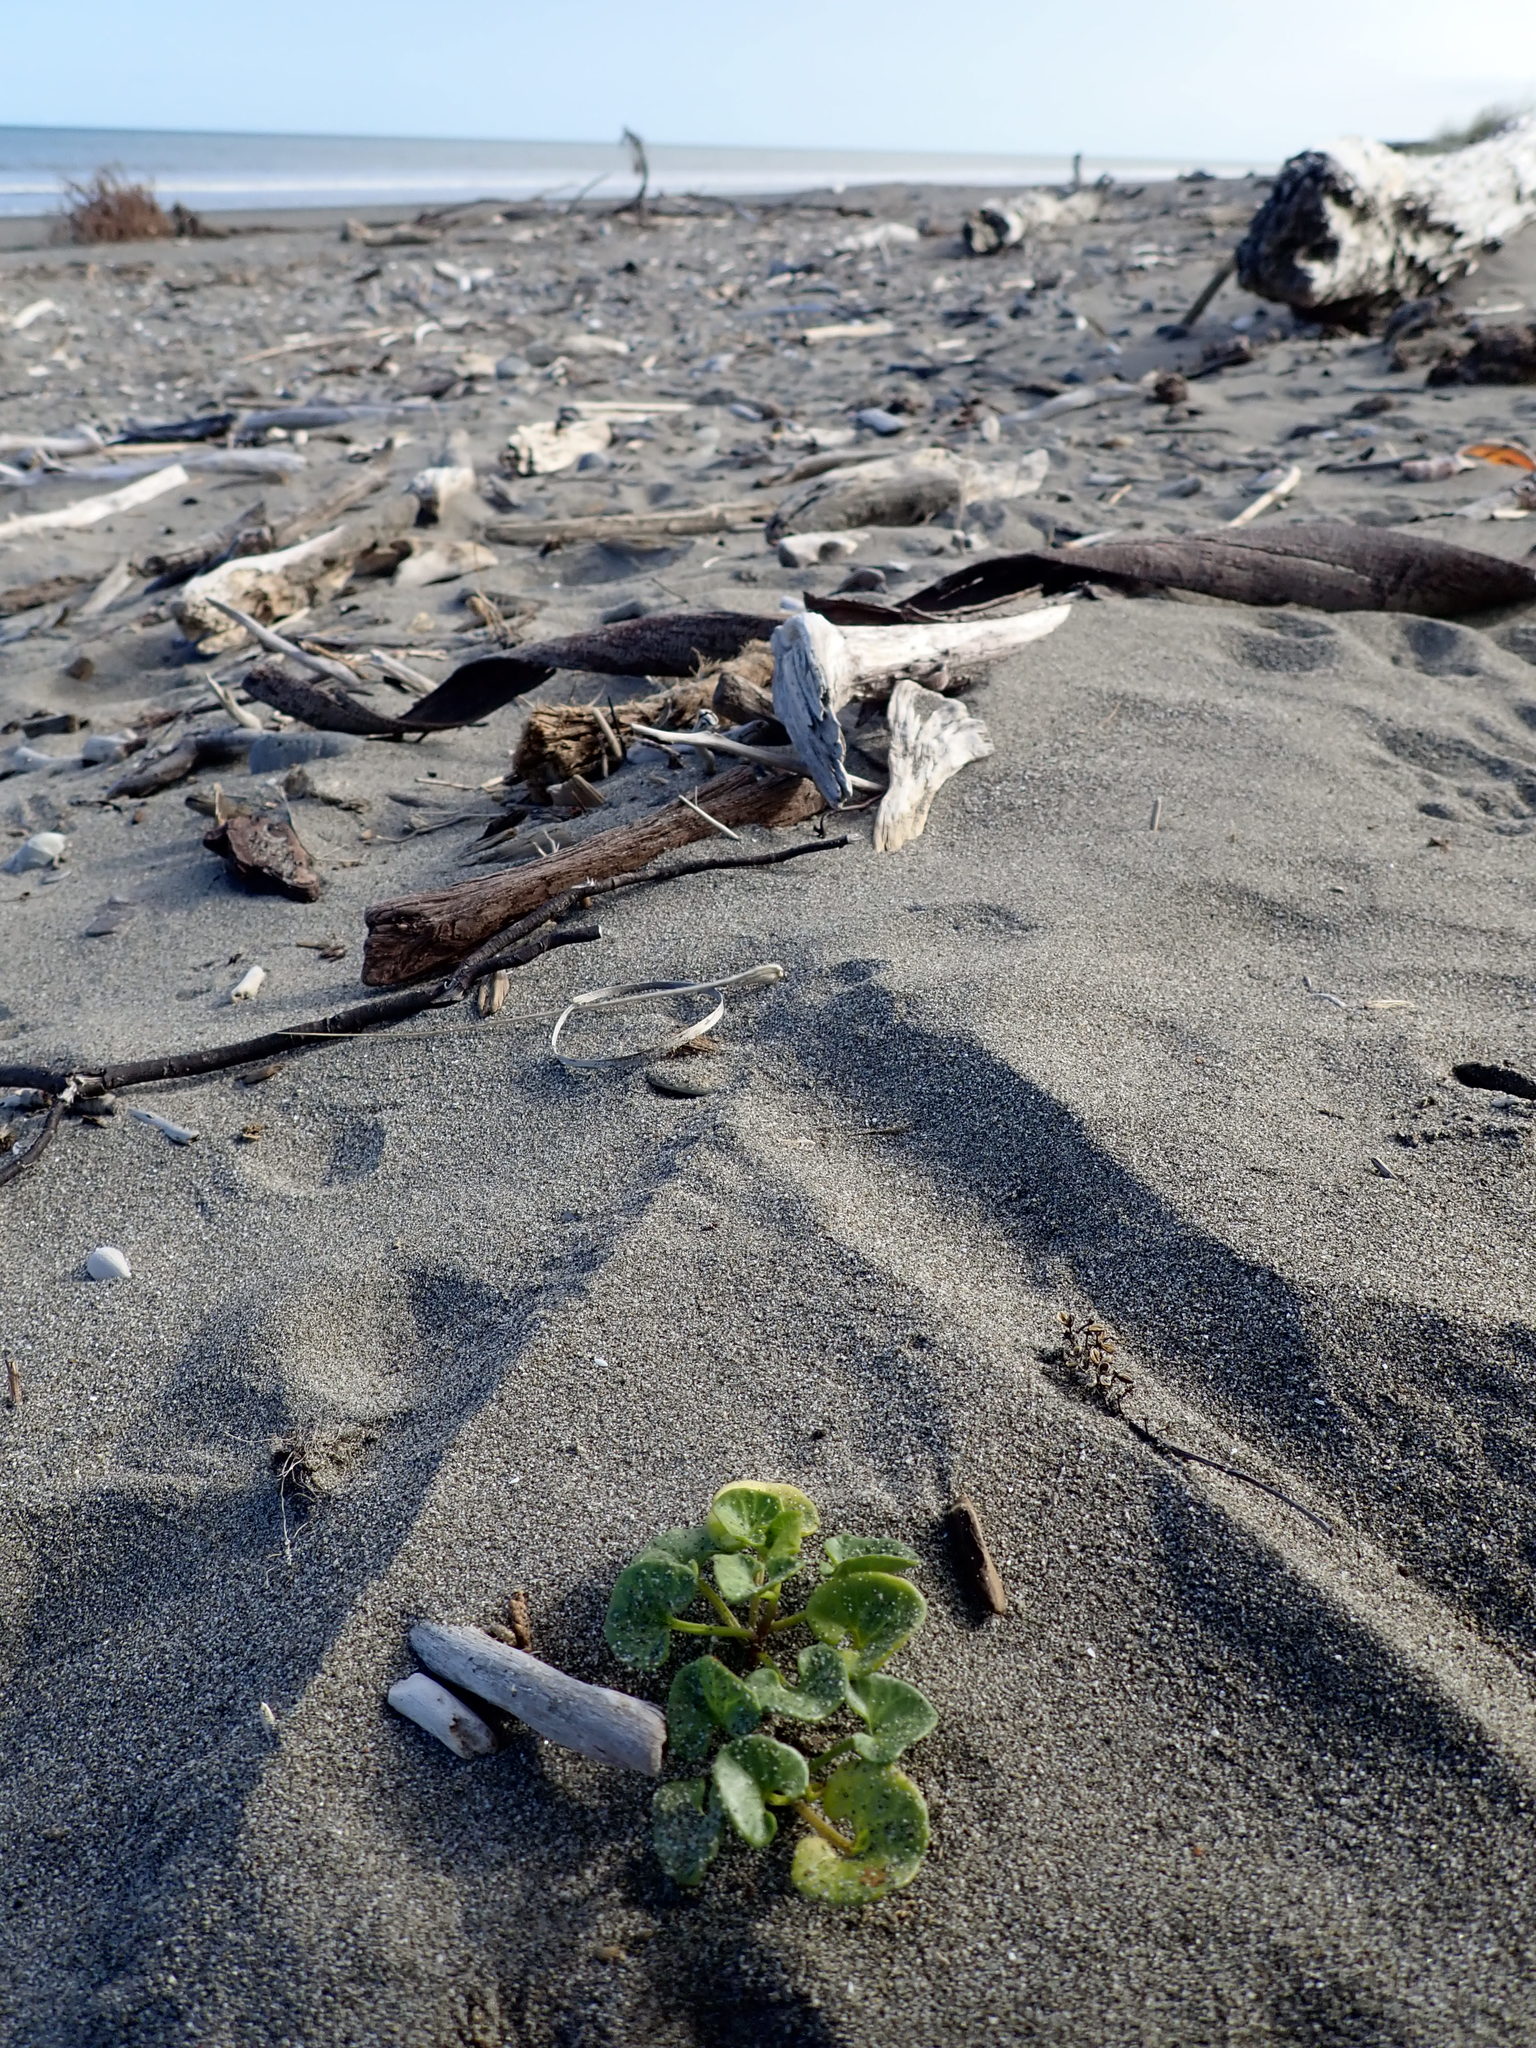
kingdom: Plantae
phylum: Tracheophyta
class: Magnoliopsida
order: Solanales
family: Convolvulaceae
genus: Calystegia
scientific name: Calystegia soldanella
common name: Sea bindweed
